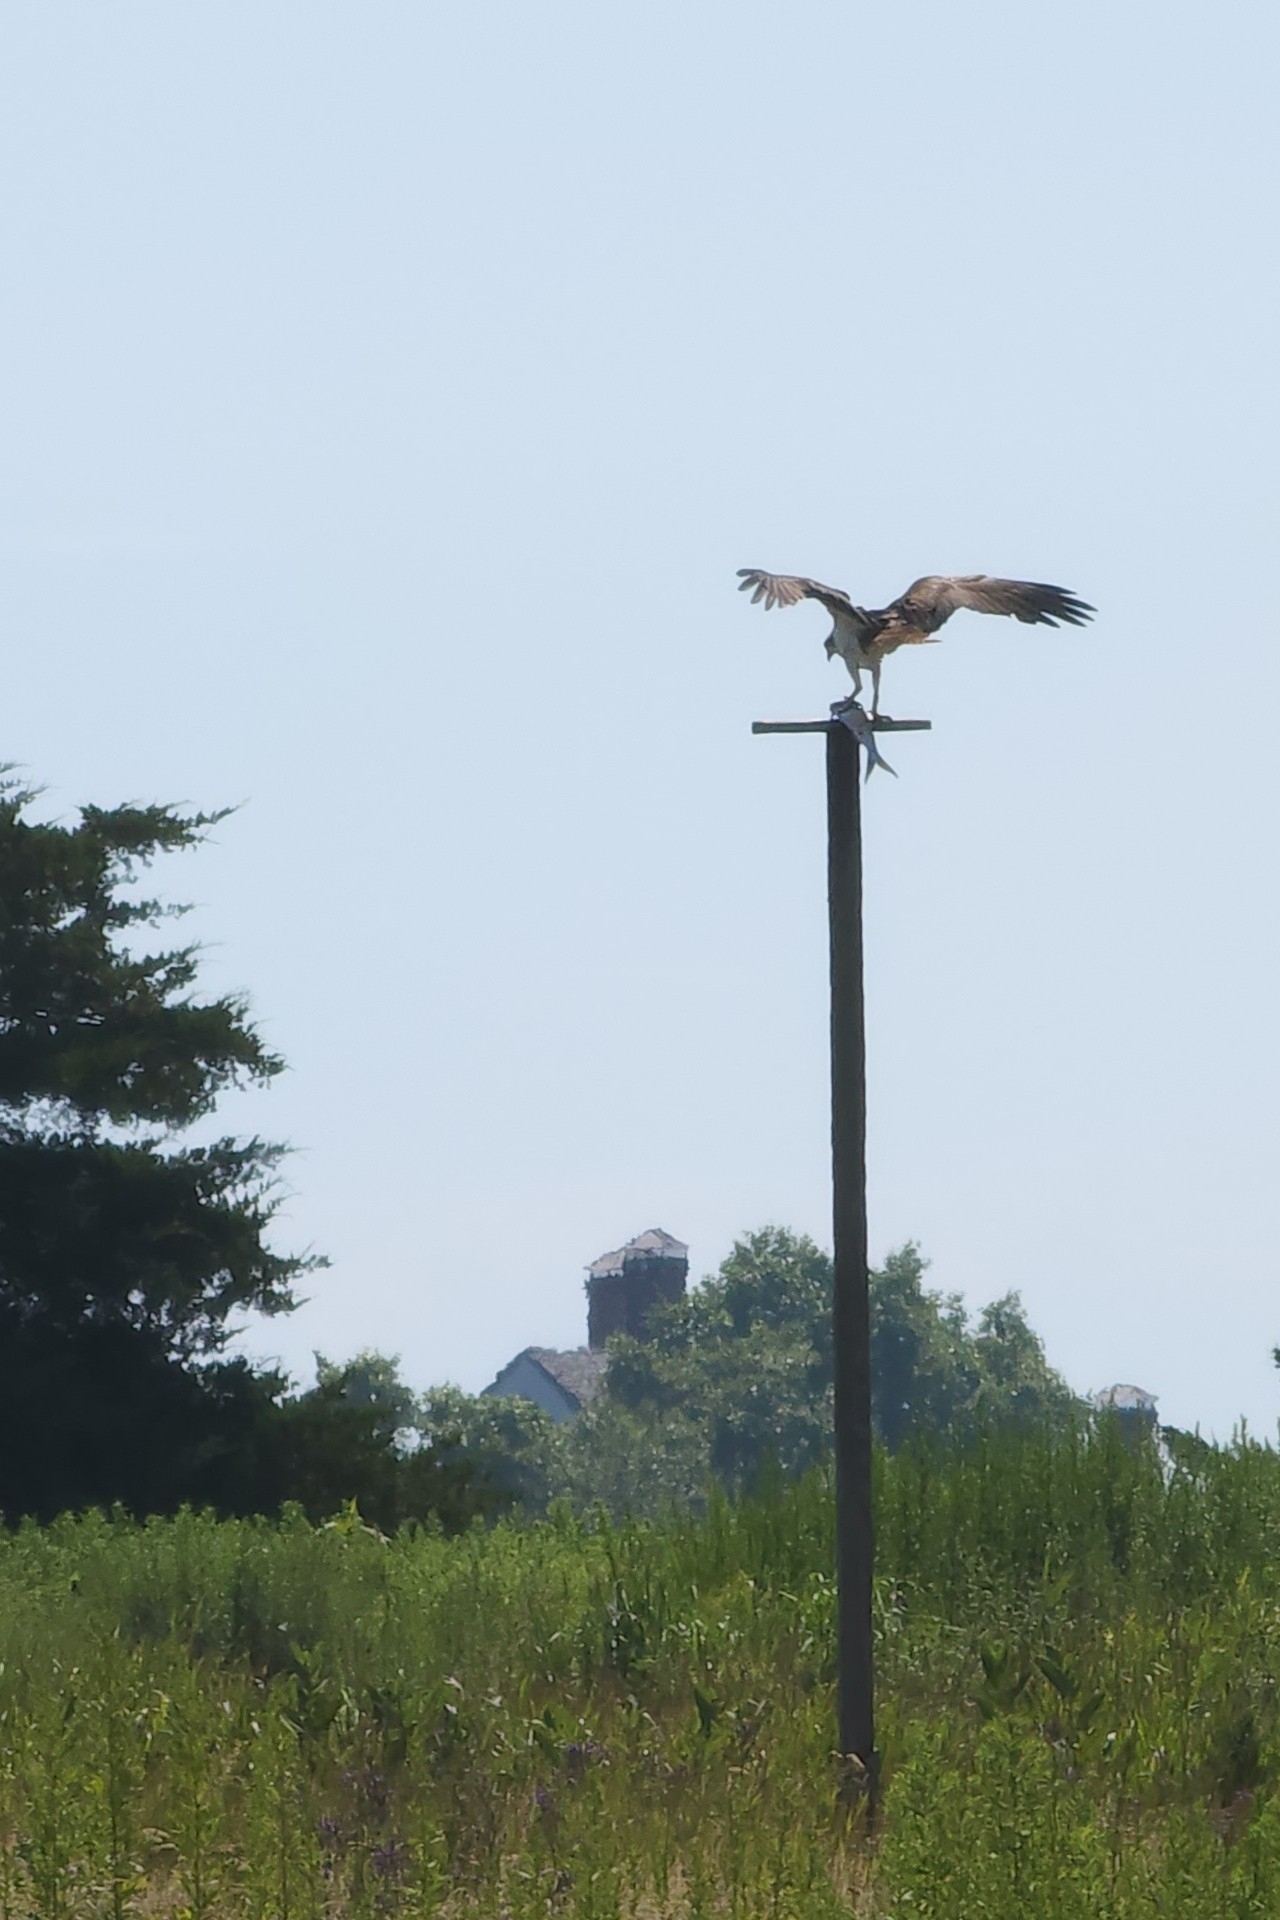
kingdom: Animalia
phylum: Chordata
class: Aves
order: Accipitriformes
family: Pandionidae
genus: Pandion
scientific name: Pandion haliaetus
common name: Osprey
